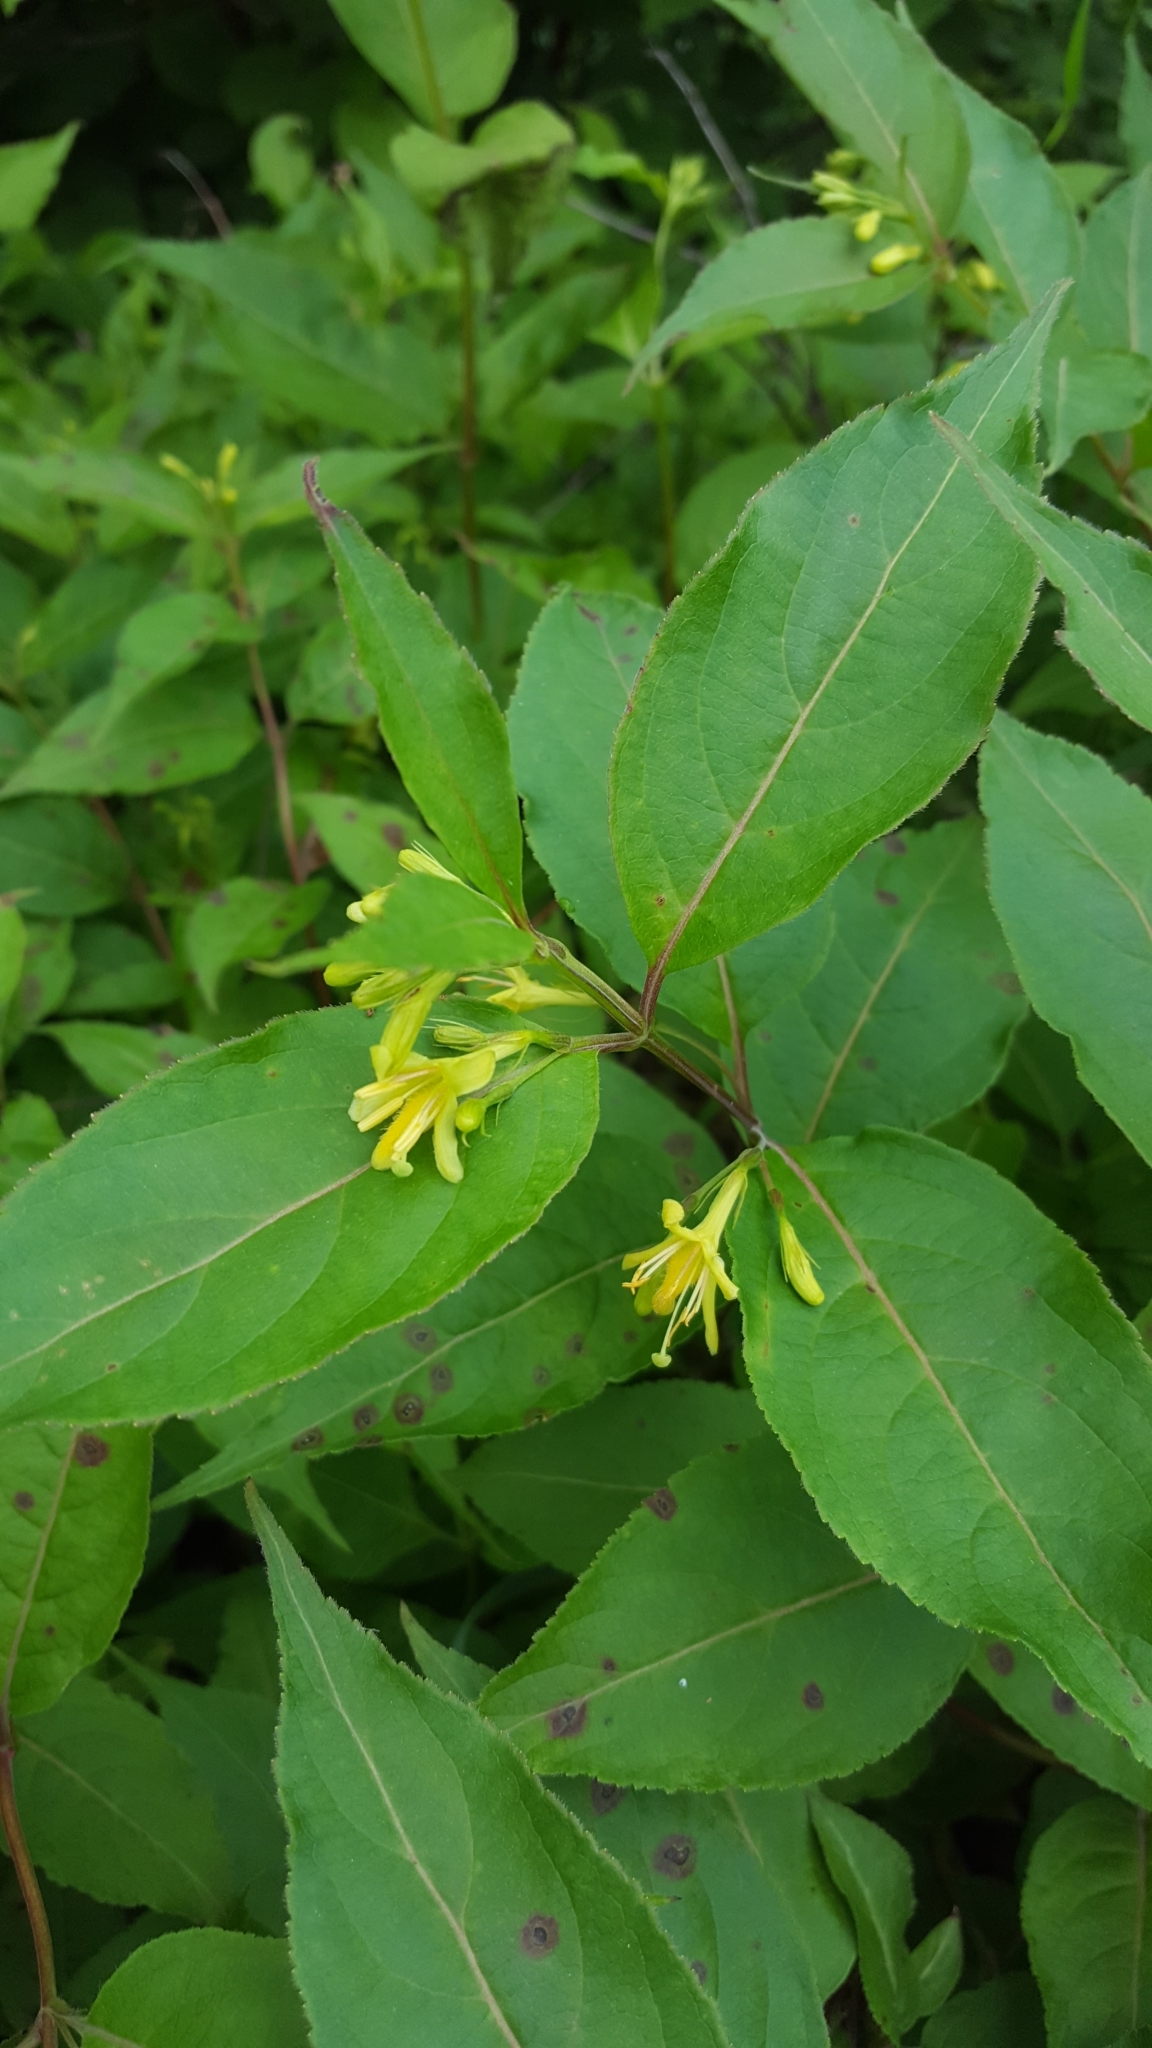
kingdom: Plantae
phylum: Tracheophyta
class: Magnoliopsida
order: Dipsacales
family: Caprifoliaceae
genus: Diervilla
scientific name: Diervilla lonicera
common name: Bush-honeysuckle
